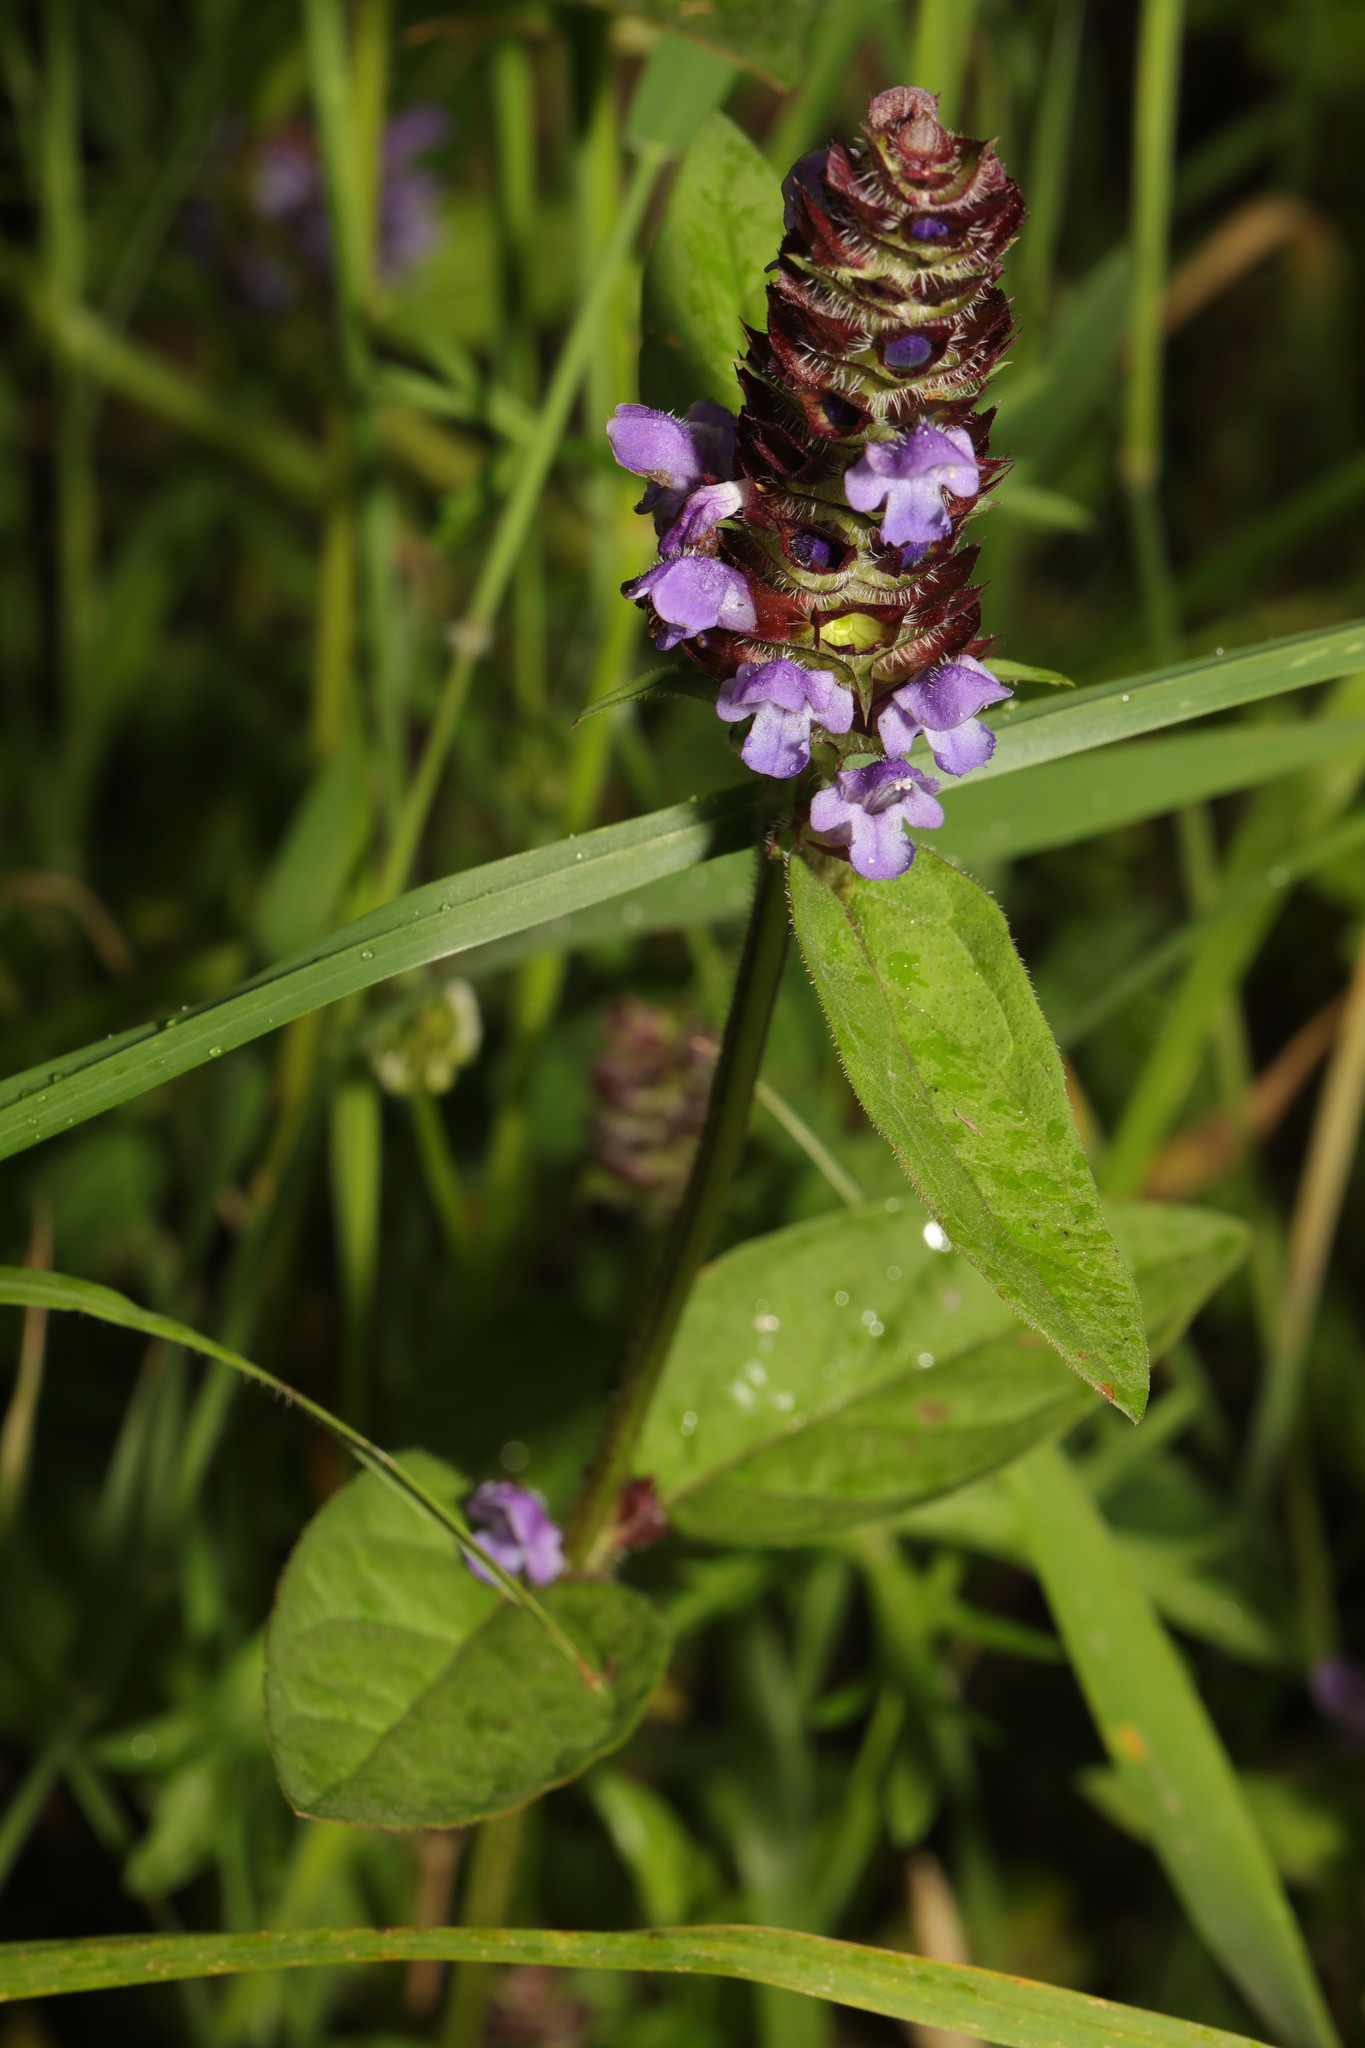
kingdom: Plantae
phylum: Tracheophyta
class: Magnoliopsida
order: Lamiales
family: Lamiaceae
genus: Prunella
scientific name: Prunella vulgaris
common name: Heal-all
